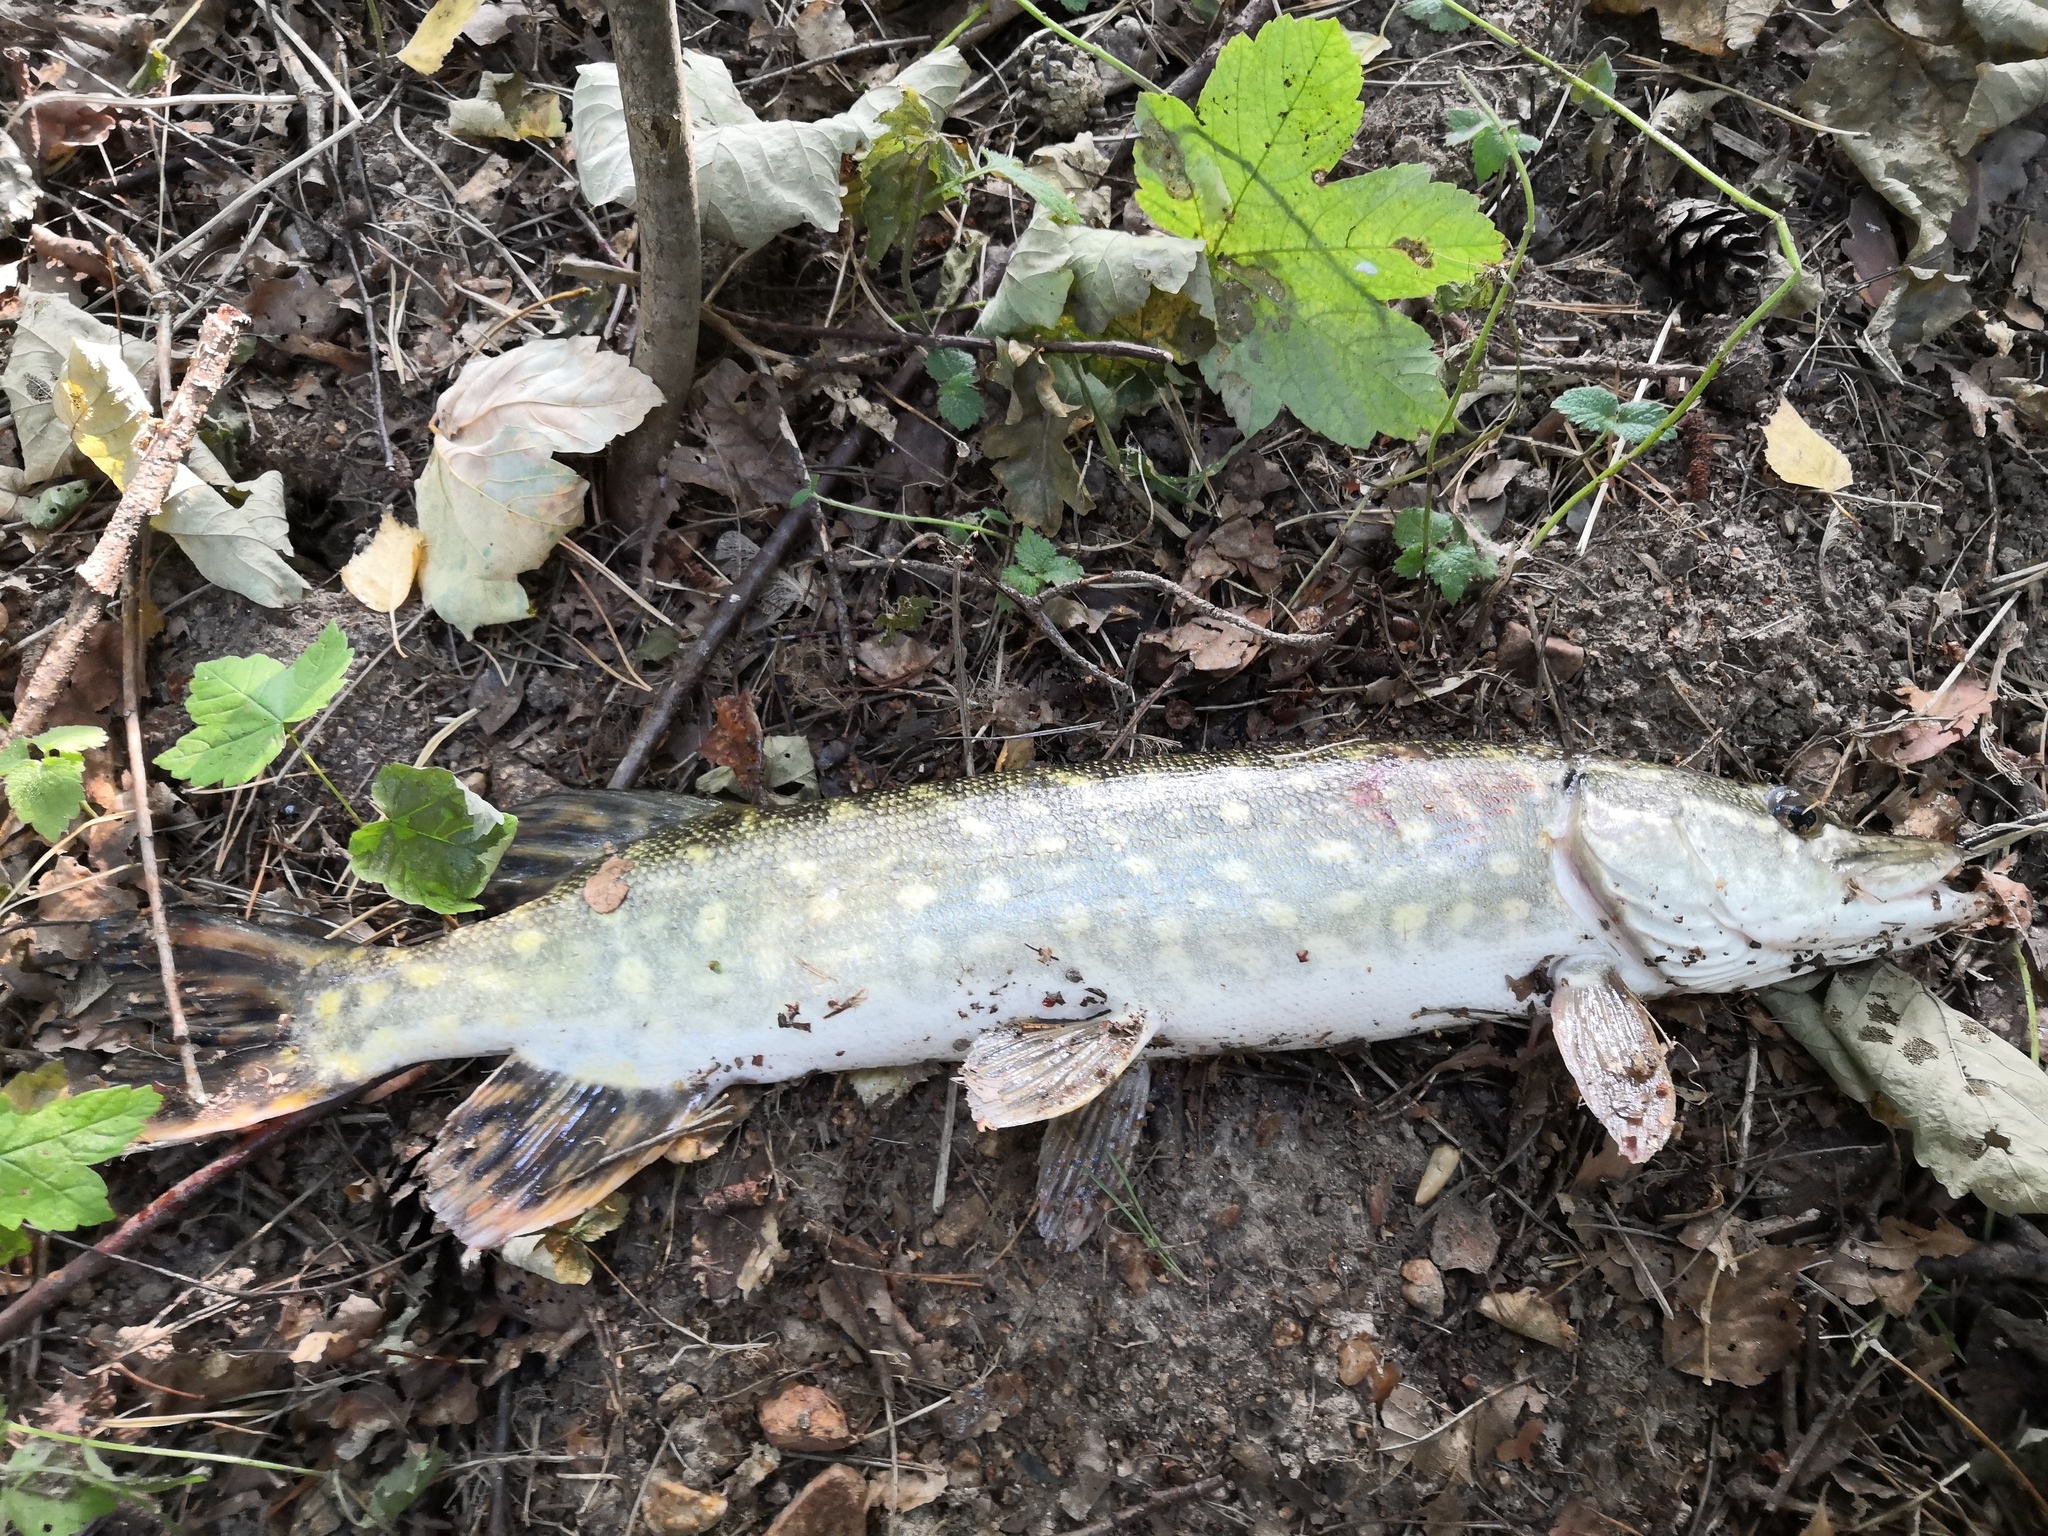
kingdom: Animalia
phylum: Chordata
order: Esociformes
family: Esocidae
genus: Esox
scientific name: Esox lucius
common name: Northern pike
